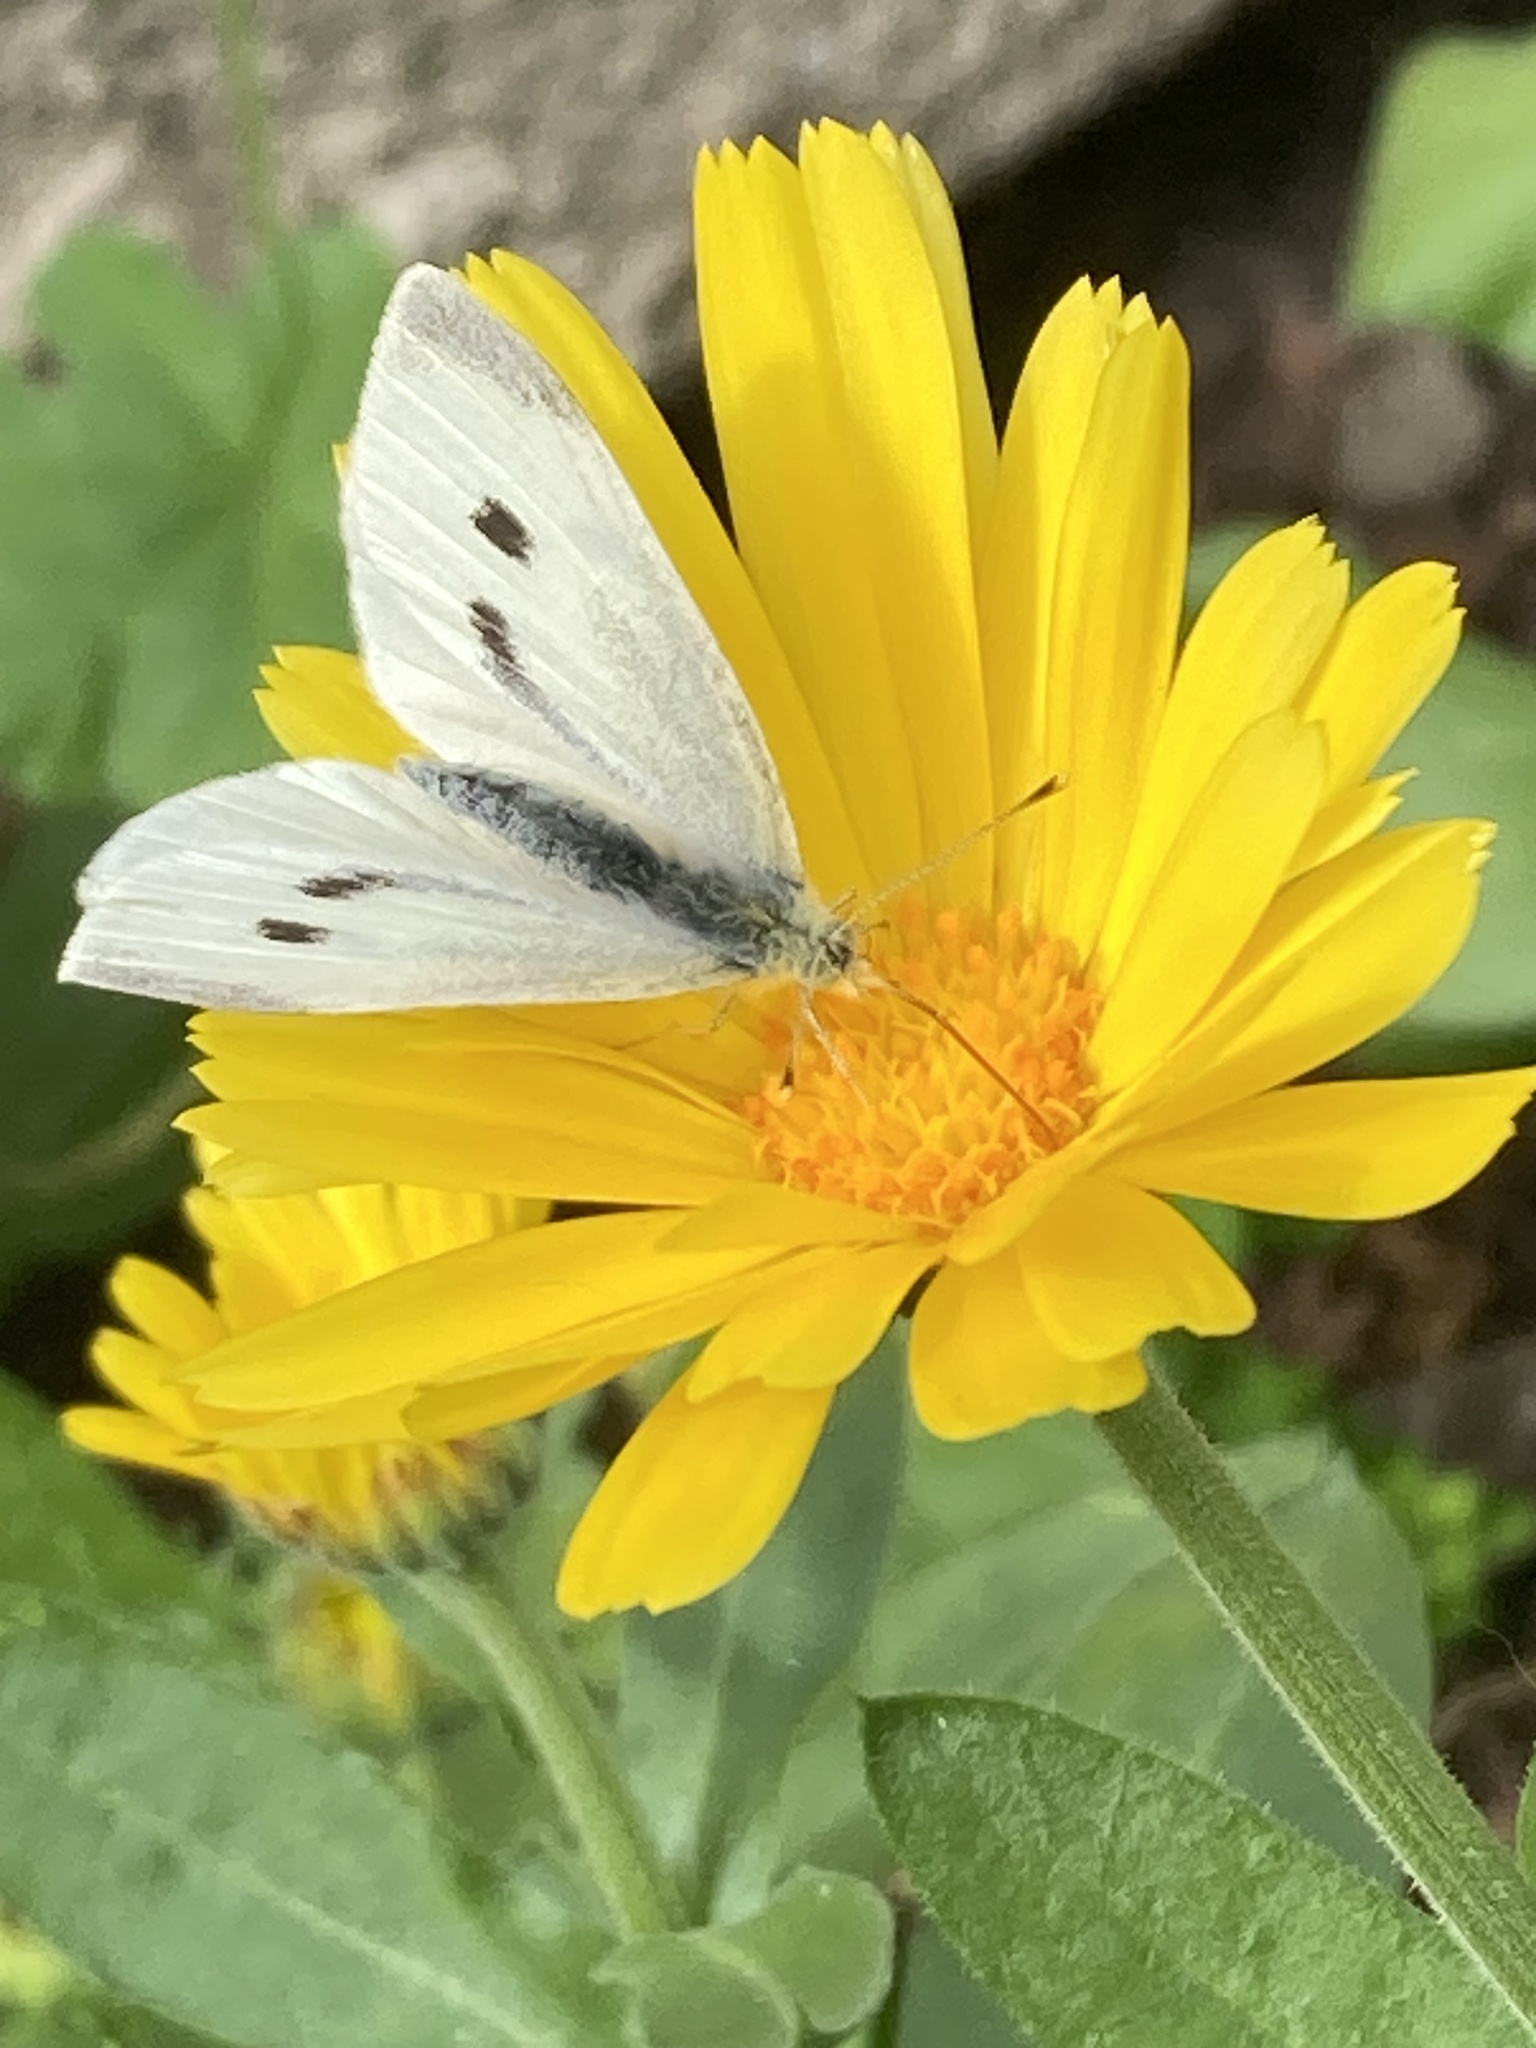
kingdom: Animalia
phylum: Arthropoda
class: Insecta
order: Lepidoptera
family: Pieridae
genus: Pieris
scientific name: Pieris rapae
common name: Small white
